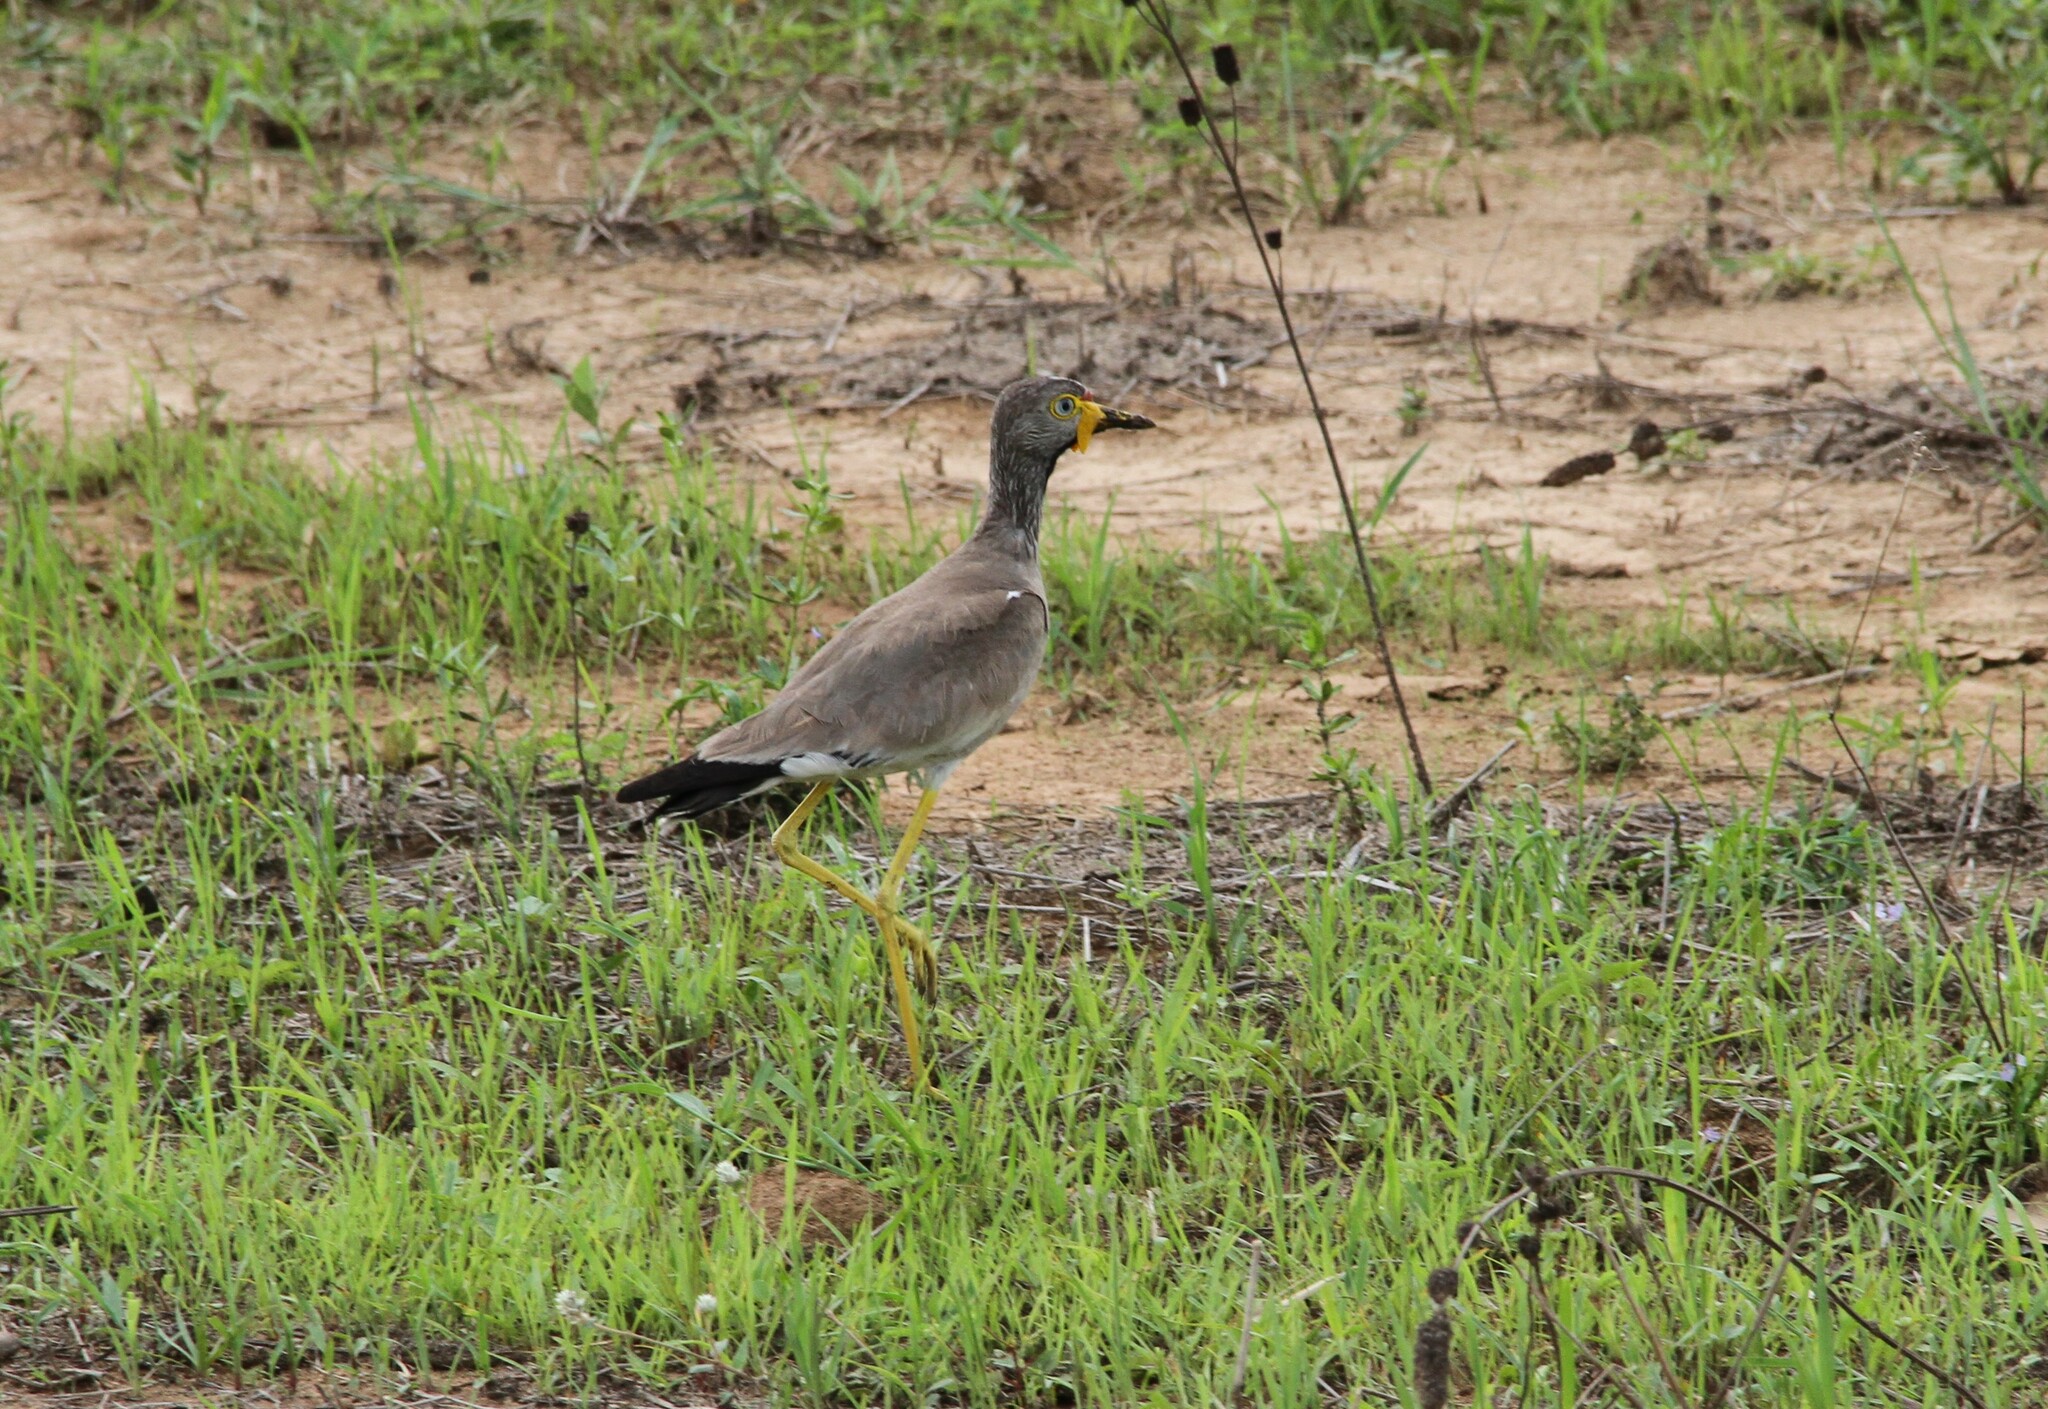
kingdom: Animalia
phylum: Chordata
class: Aves
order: Charadriiformes
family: Charadriidae
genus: Vanellus
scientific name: Vanellus senegallus
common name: African wattled lapwing
